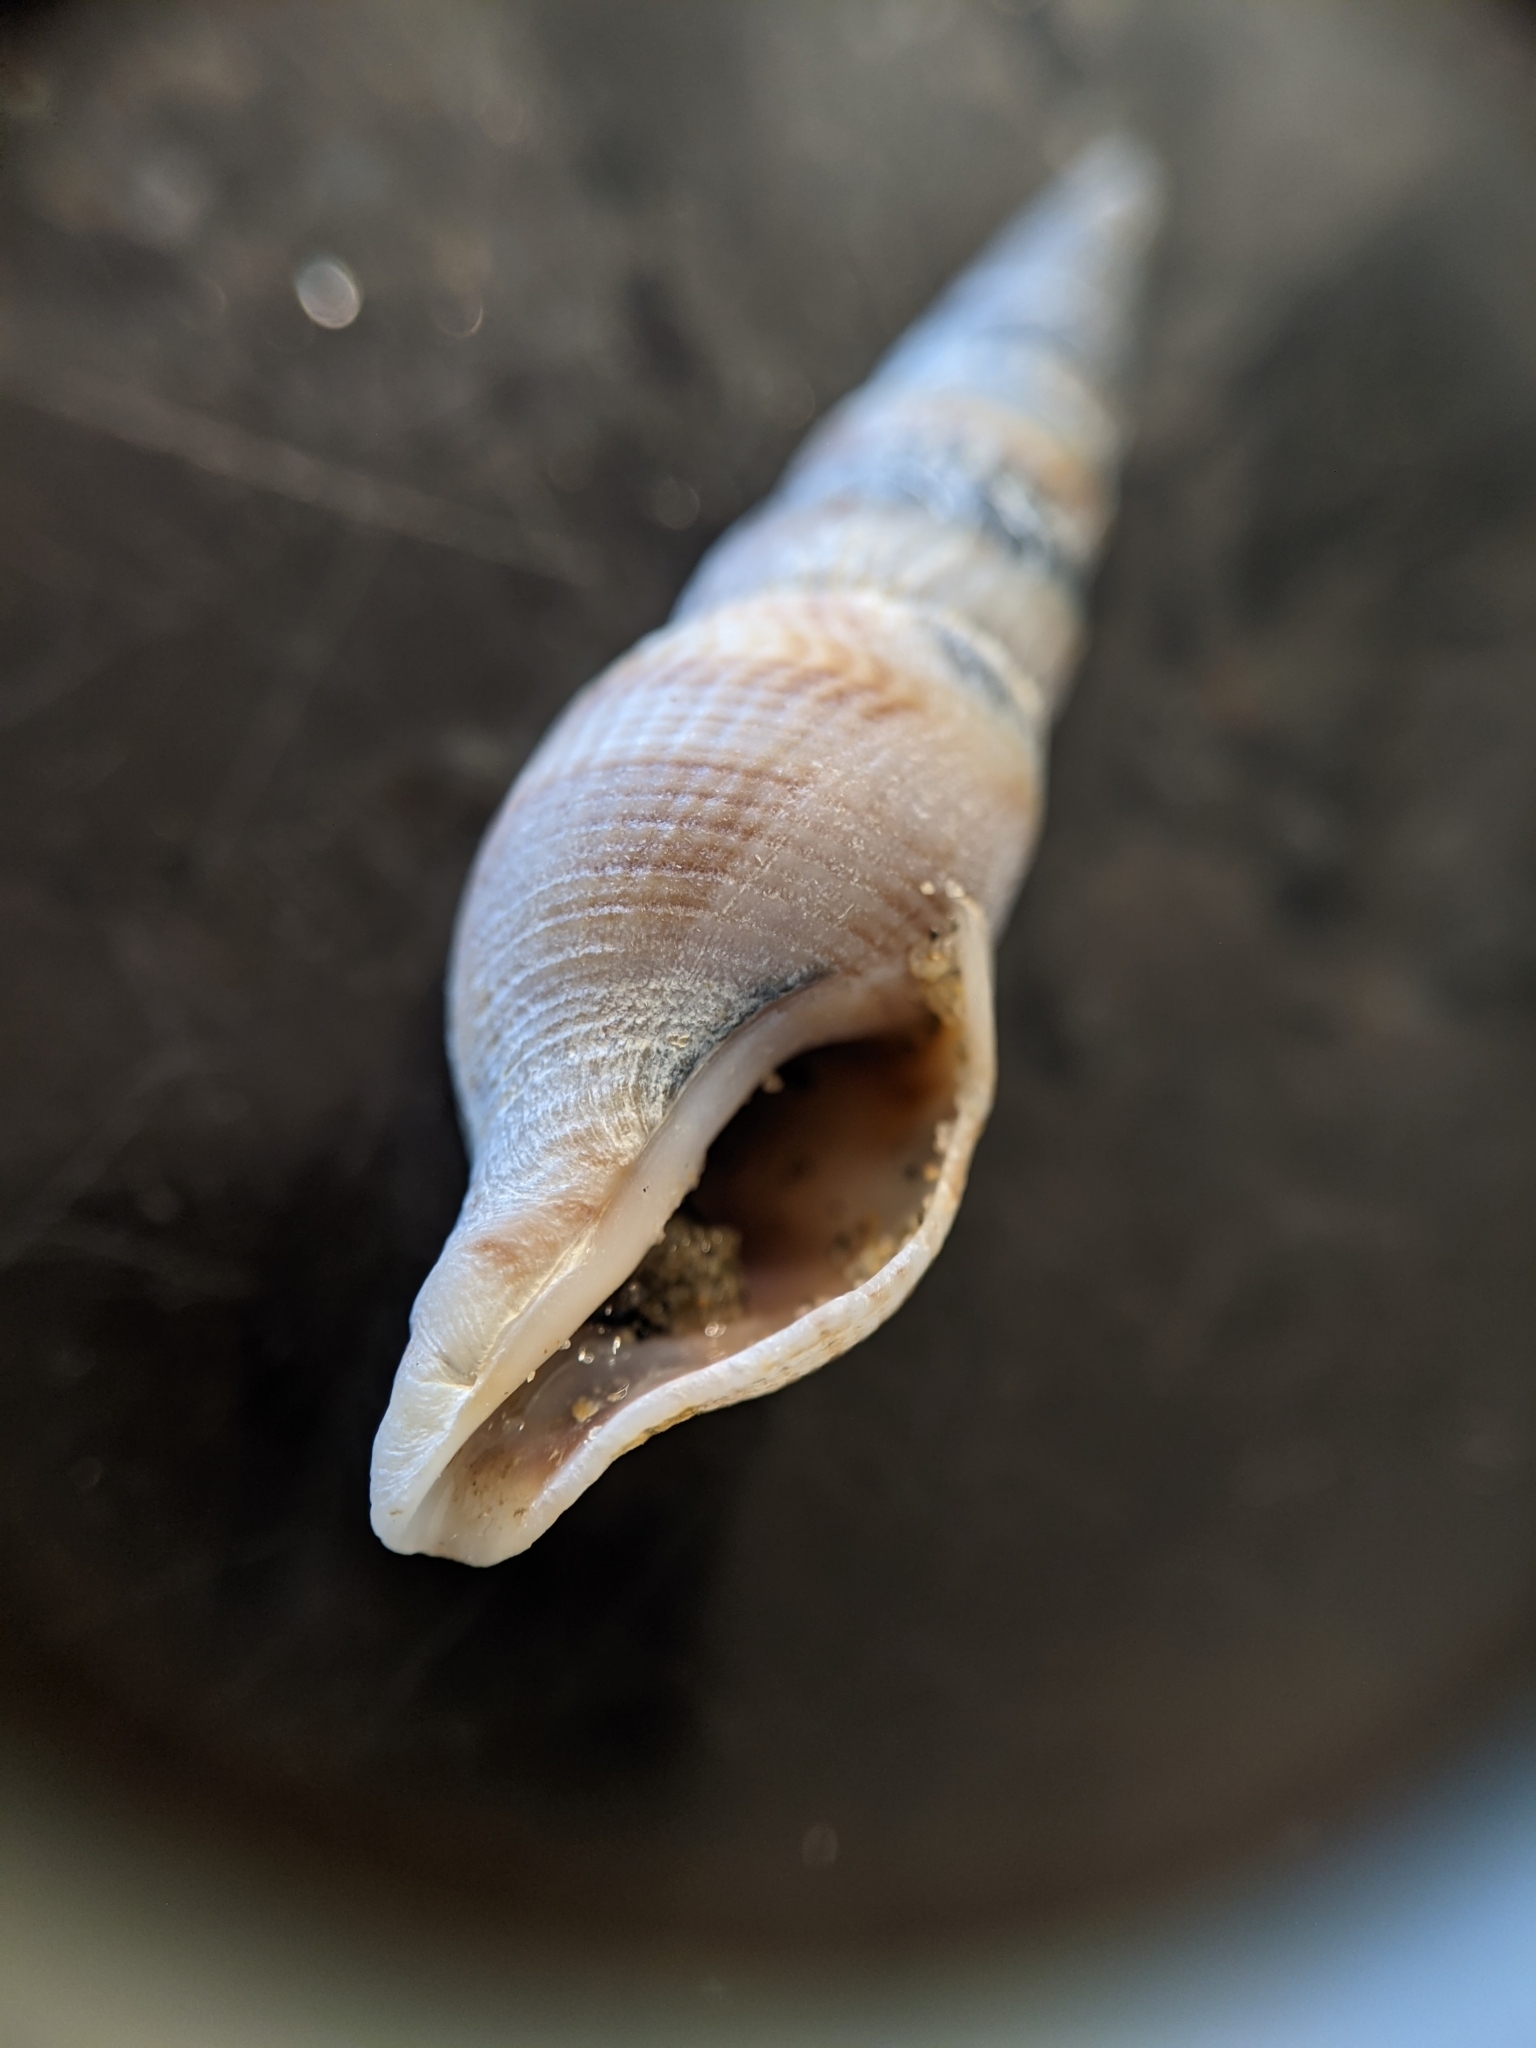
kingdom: Animalia
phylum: Mollusca
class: Gastropoda
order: Neogastropoda
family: Borsoniidae
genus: Ophiodermella
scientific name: Ophiodermella inermis
